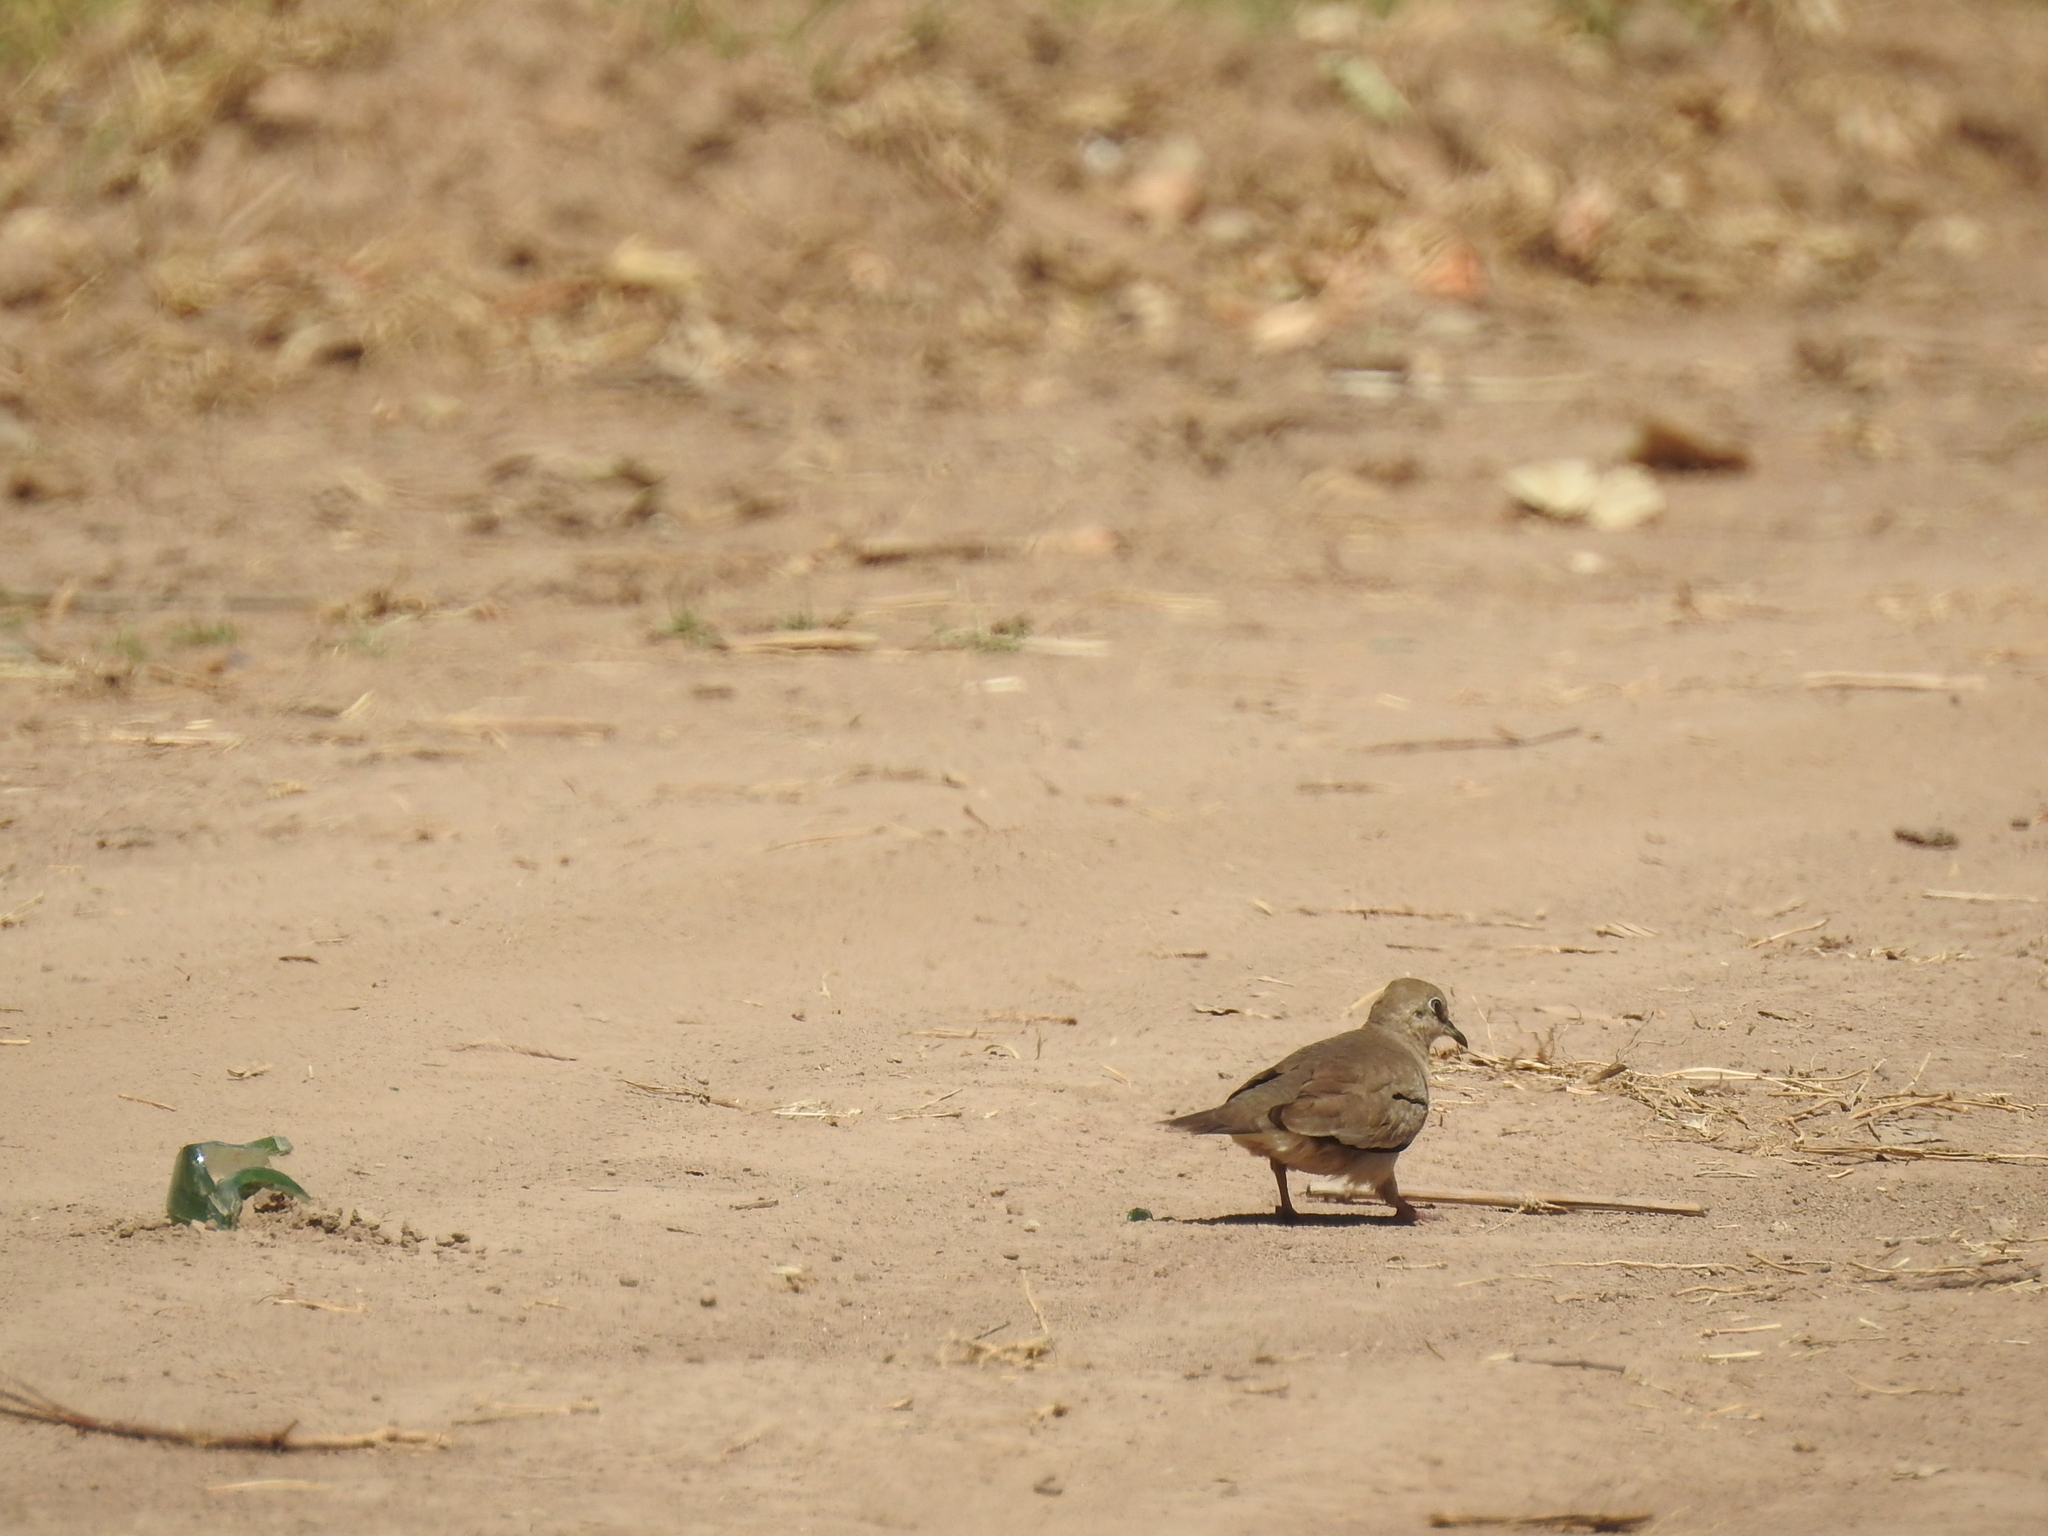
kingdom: Animalia
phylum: Chordata
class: Aves
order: Columbiformes
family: Columbidae
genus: Columbina
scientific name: Columbina picui
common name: Picui ground dove
